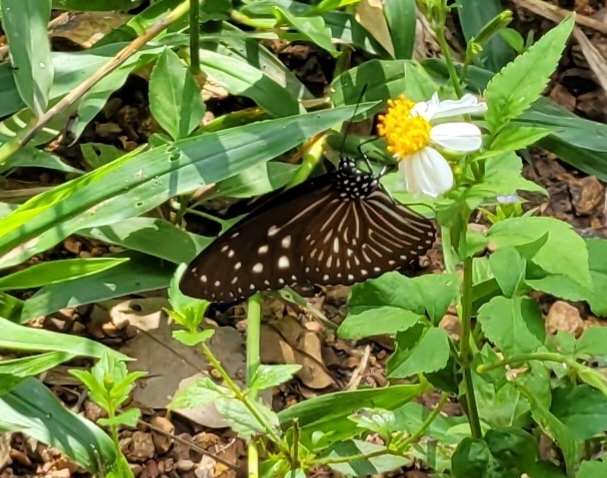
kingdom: Animalia
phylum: Arthropoda
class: Insecta
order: Lepidoptera
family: Nymphalidae
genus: Euploea
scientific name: Euploea mulciber
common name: Striped blue crow butterfly
